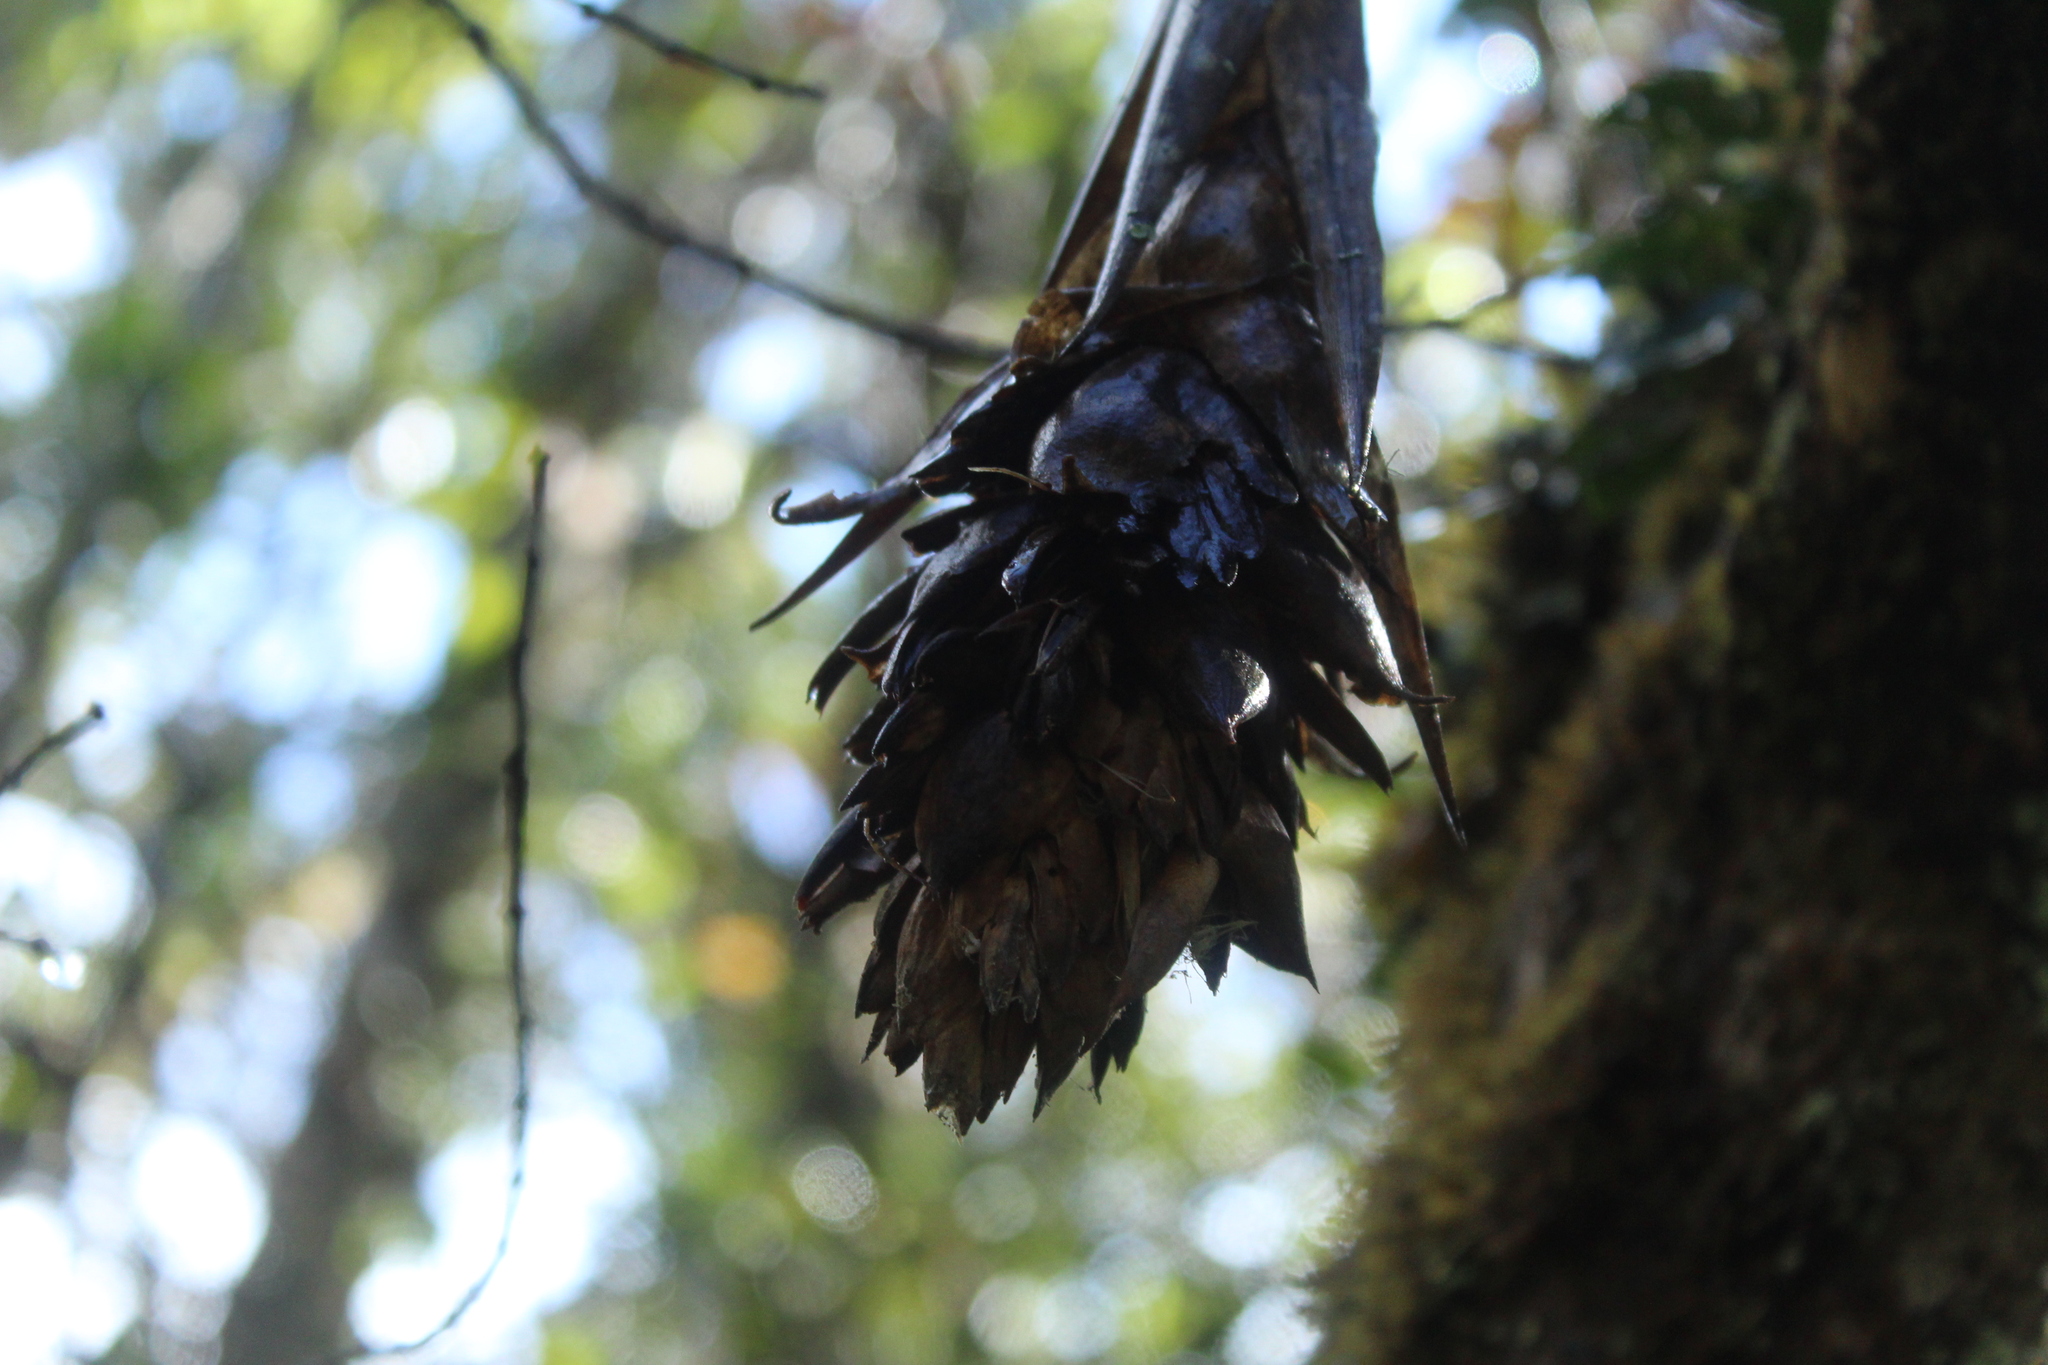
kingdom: Plantae
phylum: Tracheophyta
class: Liliopsida
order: Poales
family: Bromeliaceae
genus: Tillandsia
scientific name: Tillandsia biflora
